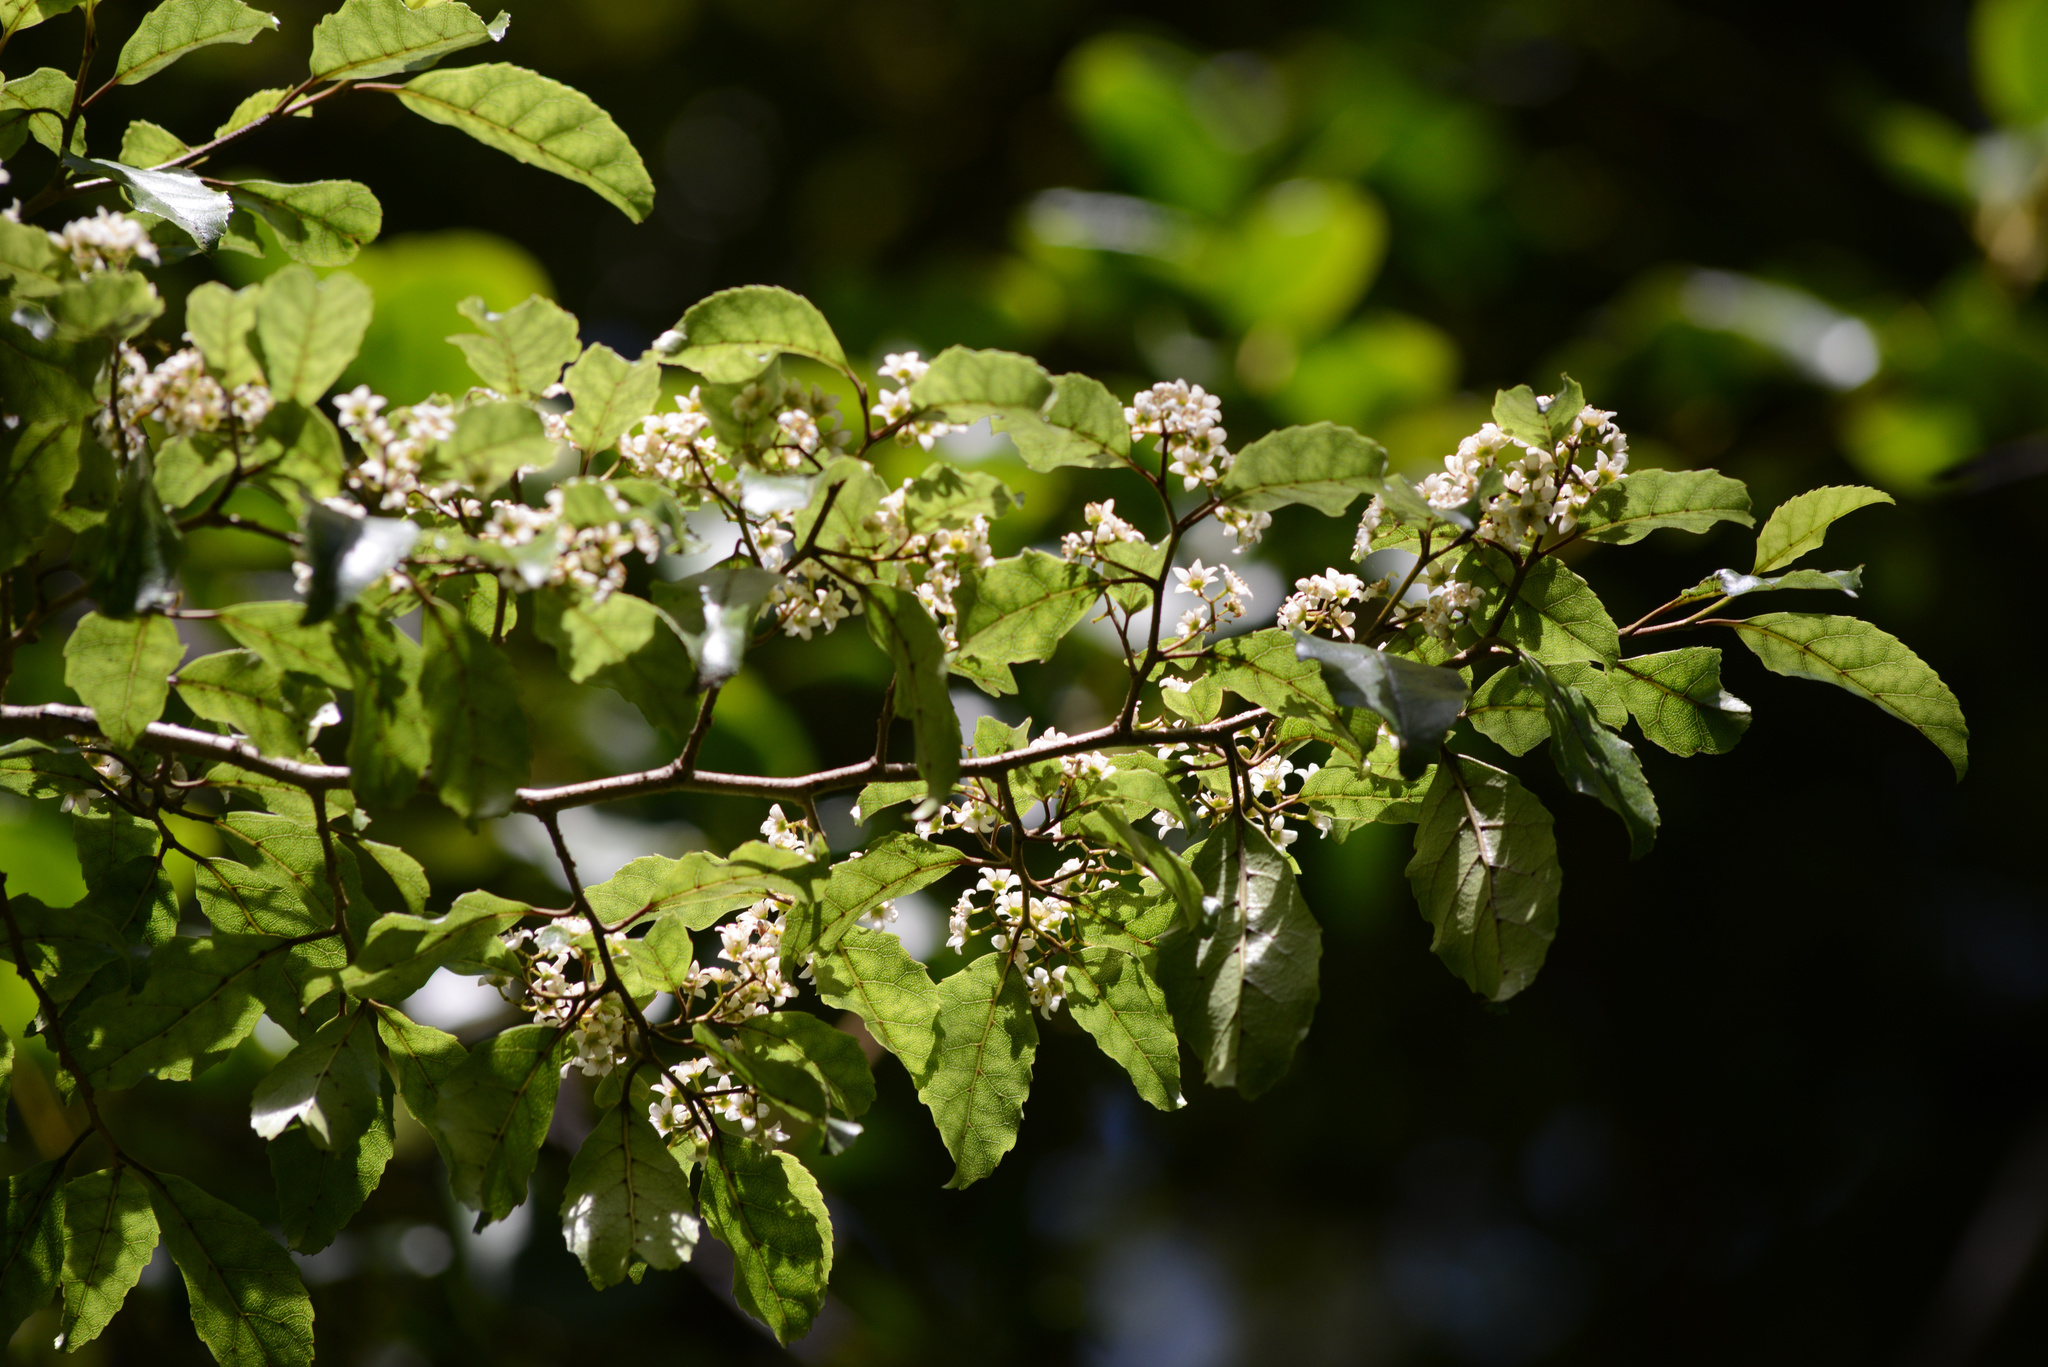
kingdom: Plantae
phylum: Tracheophyta
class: Magnoliopsida
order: Asterales
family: Rousseaceae
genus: Carpodetus
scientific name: Carpodetus serratus
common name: White mapau
